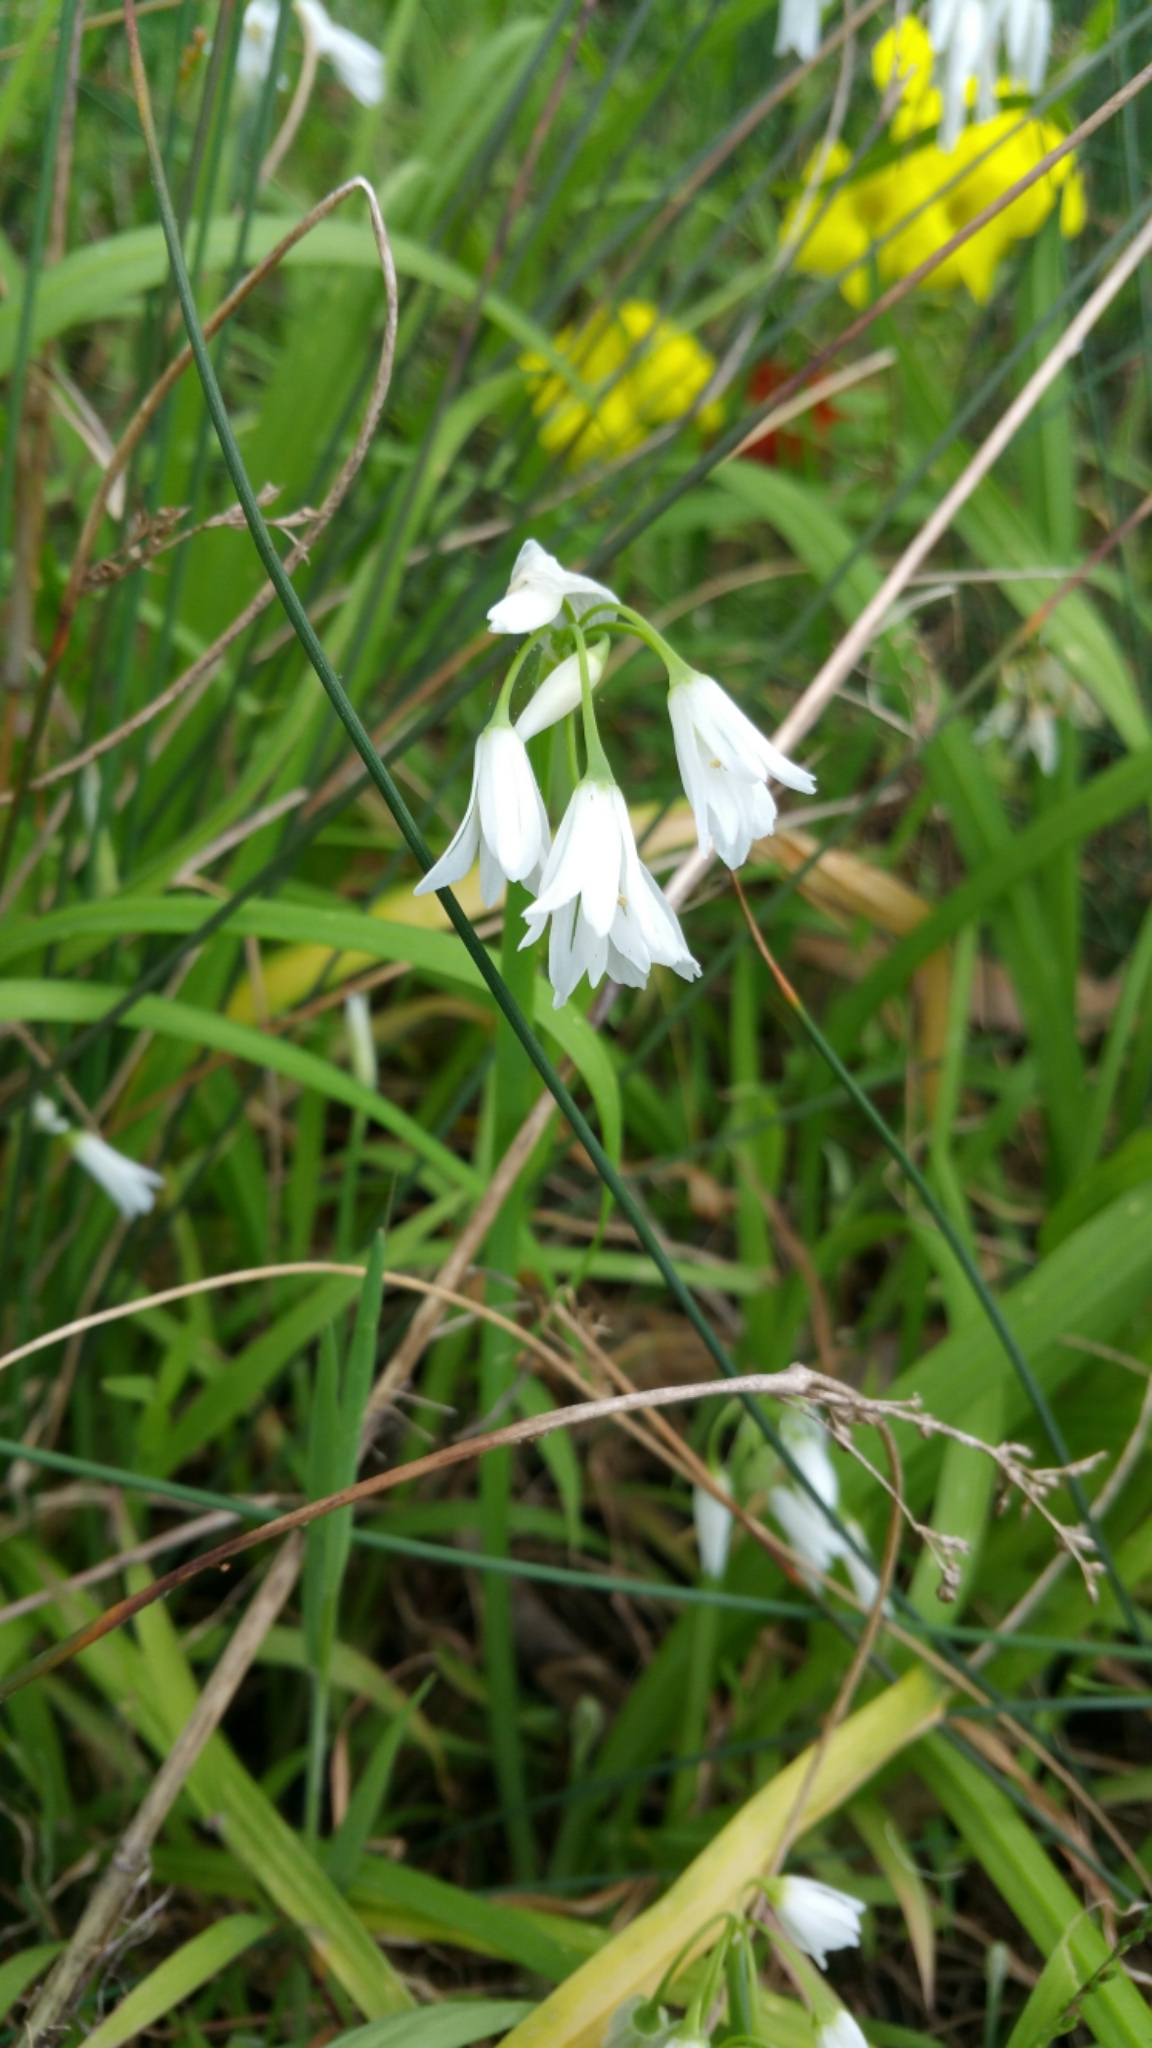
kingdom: Plantae
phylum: Tracheophyta
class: Liliopsida
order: Asparagales
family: Amaryllidaceae
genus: Allium
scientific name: Allium triquetrum
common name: Three-cornered garlic
